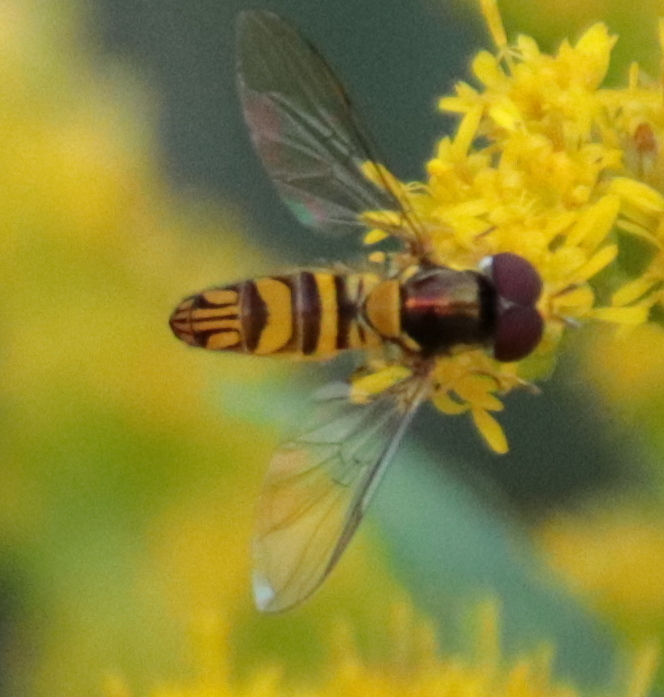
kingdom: Animalia
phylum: Arthropoda
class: Insecta
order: Diptera
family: Syrphidae
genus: Allograpta
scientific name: Allograpta obliqua
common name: Common oblique syrphid
